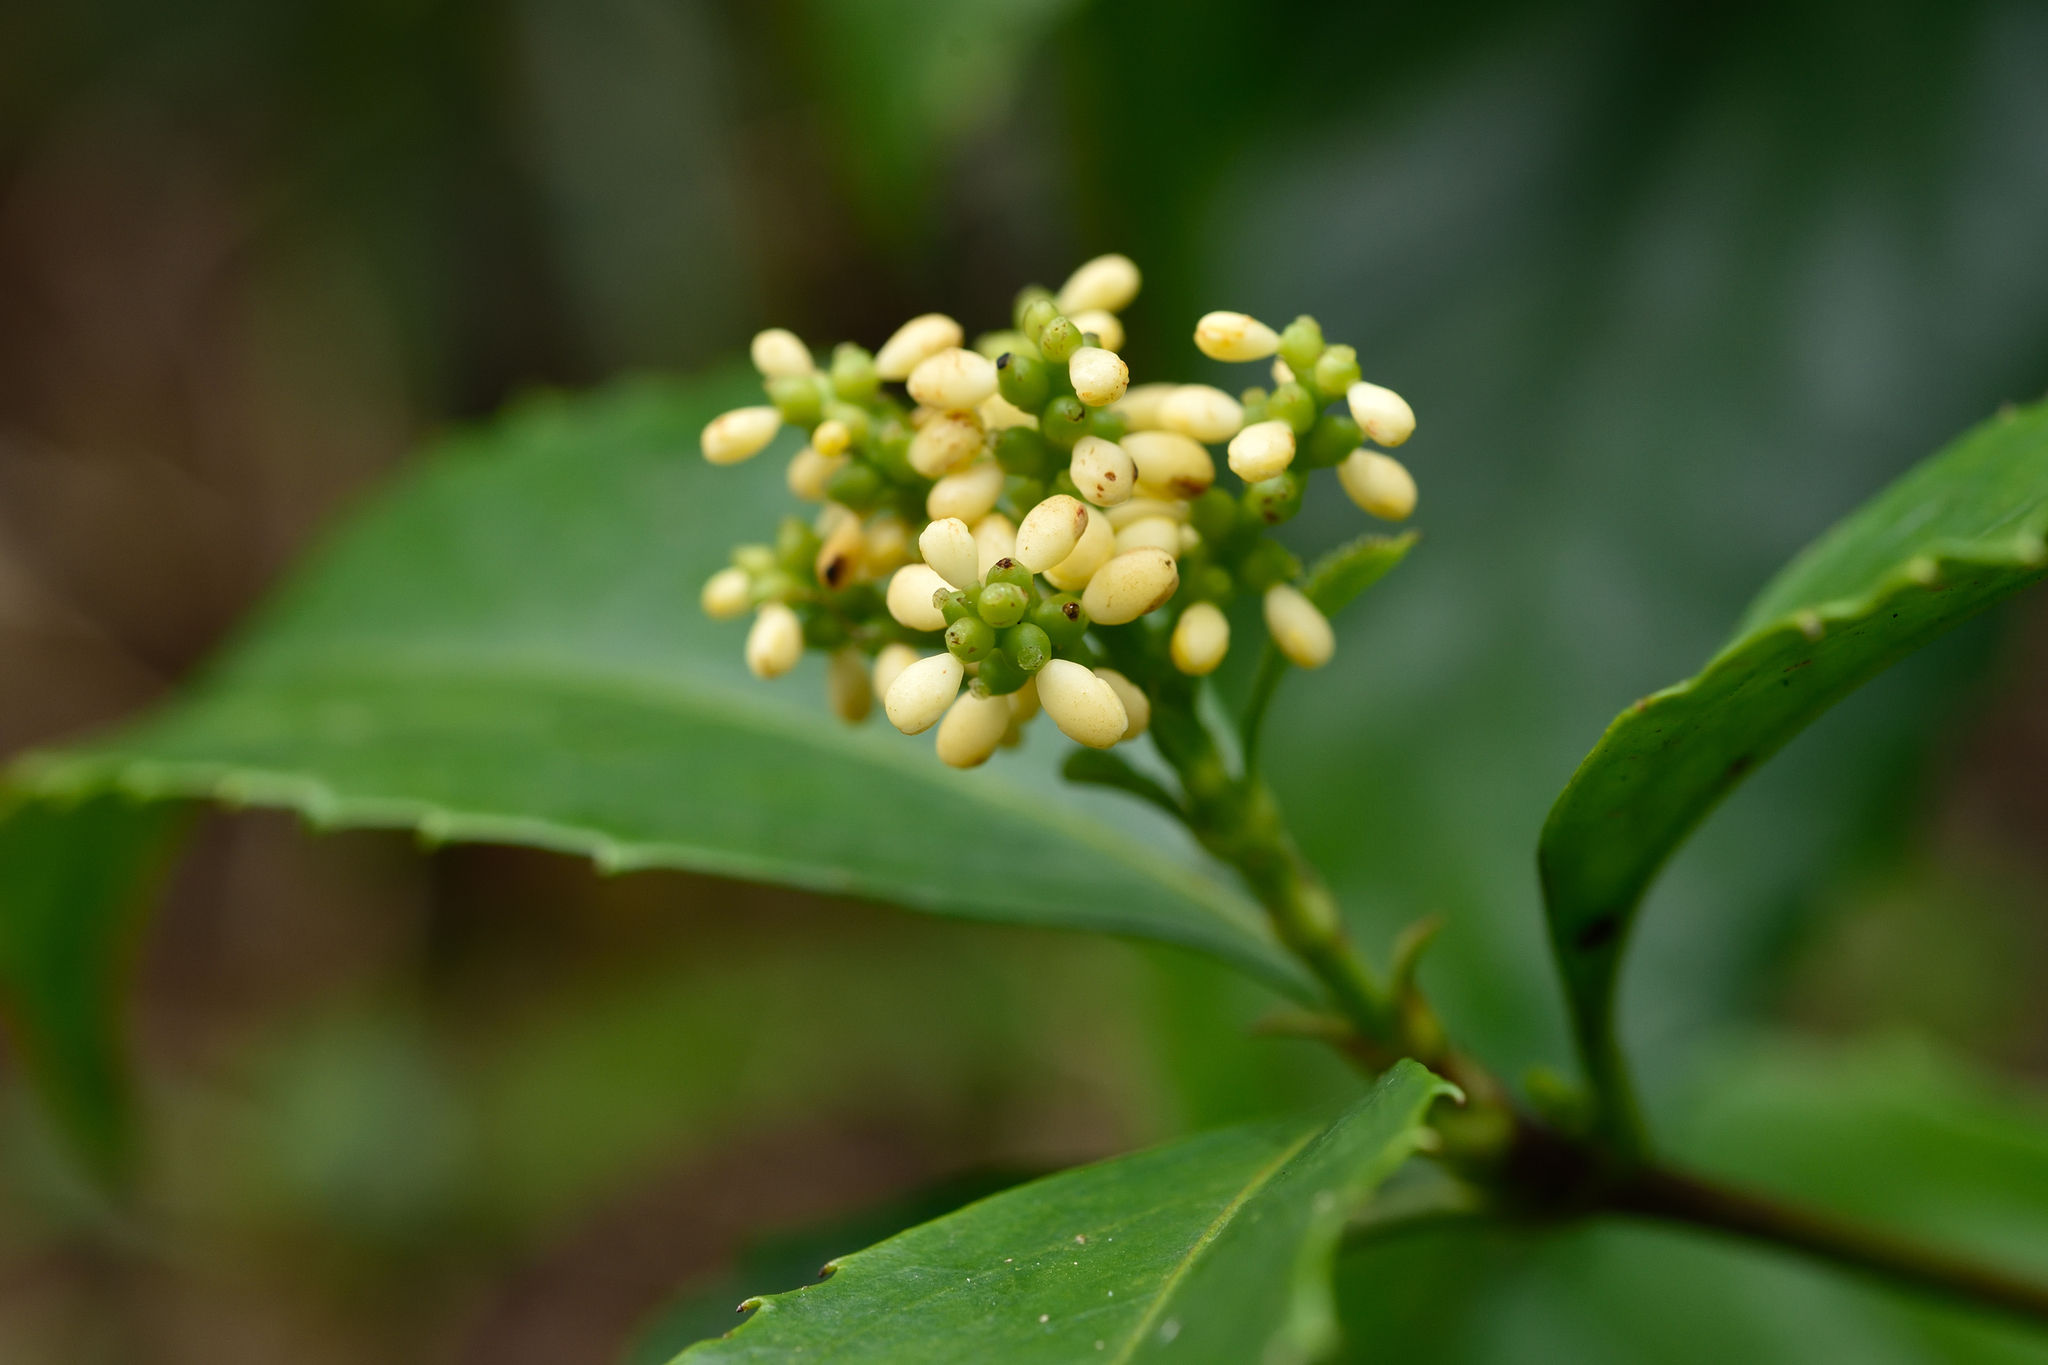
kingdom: Plantae
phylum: Tracheophyta
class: Magnoliopsida
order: Chloranthales
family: Chloranthaceae
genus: Sarcandra
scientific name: Sarcandra glabra
